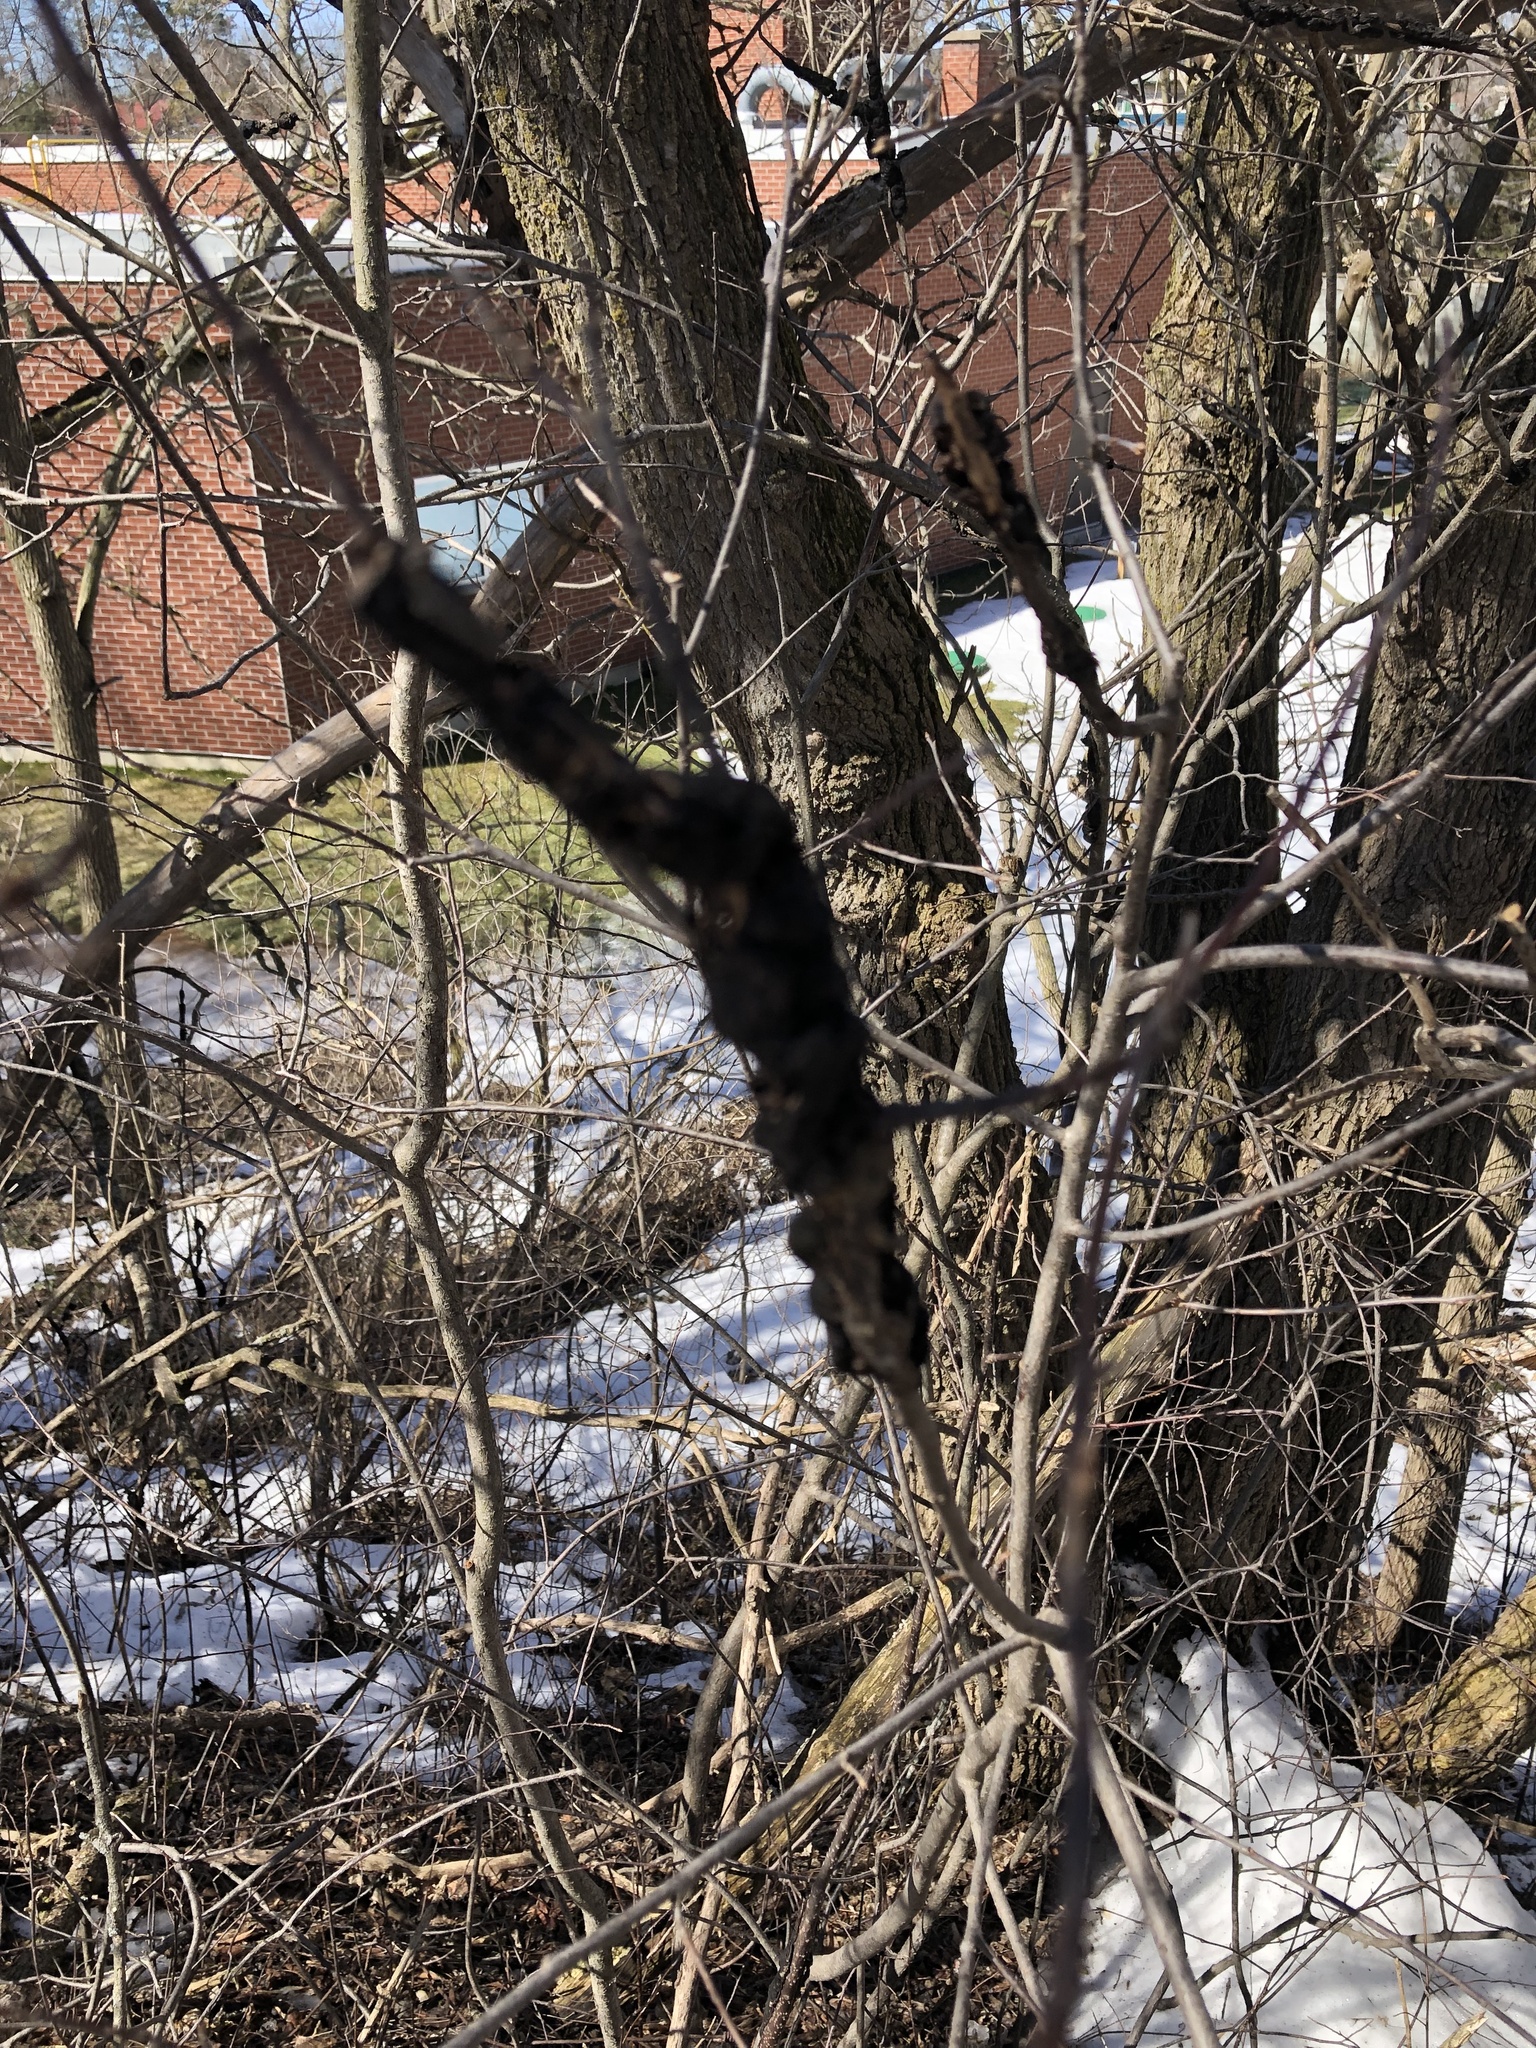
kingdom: Fungi
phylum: Ascomycota
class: Dothideomycetes
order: Venturiales
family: Venturiaceae
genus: Apiosporina
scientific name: Apiosporina morbosa
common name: Black knot
